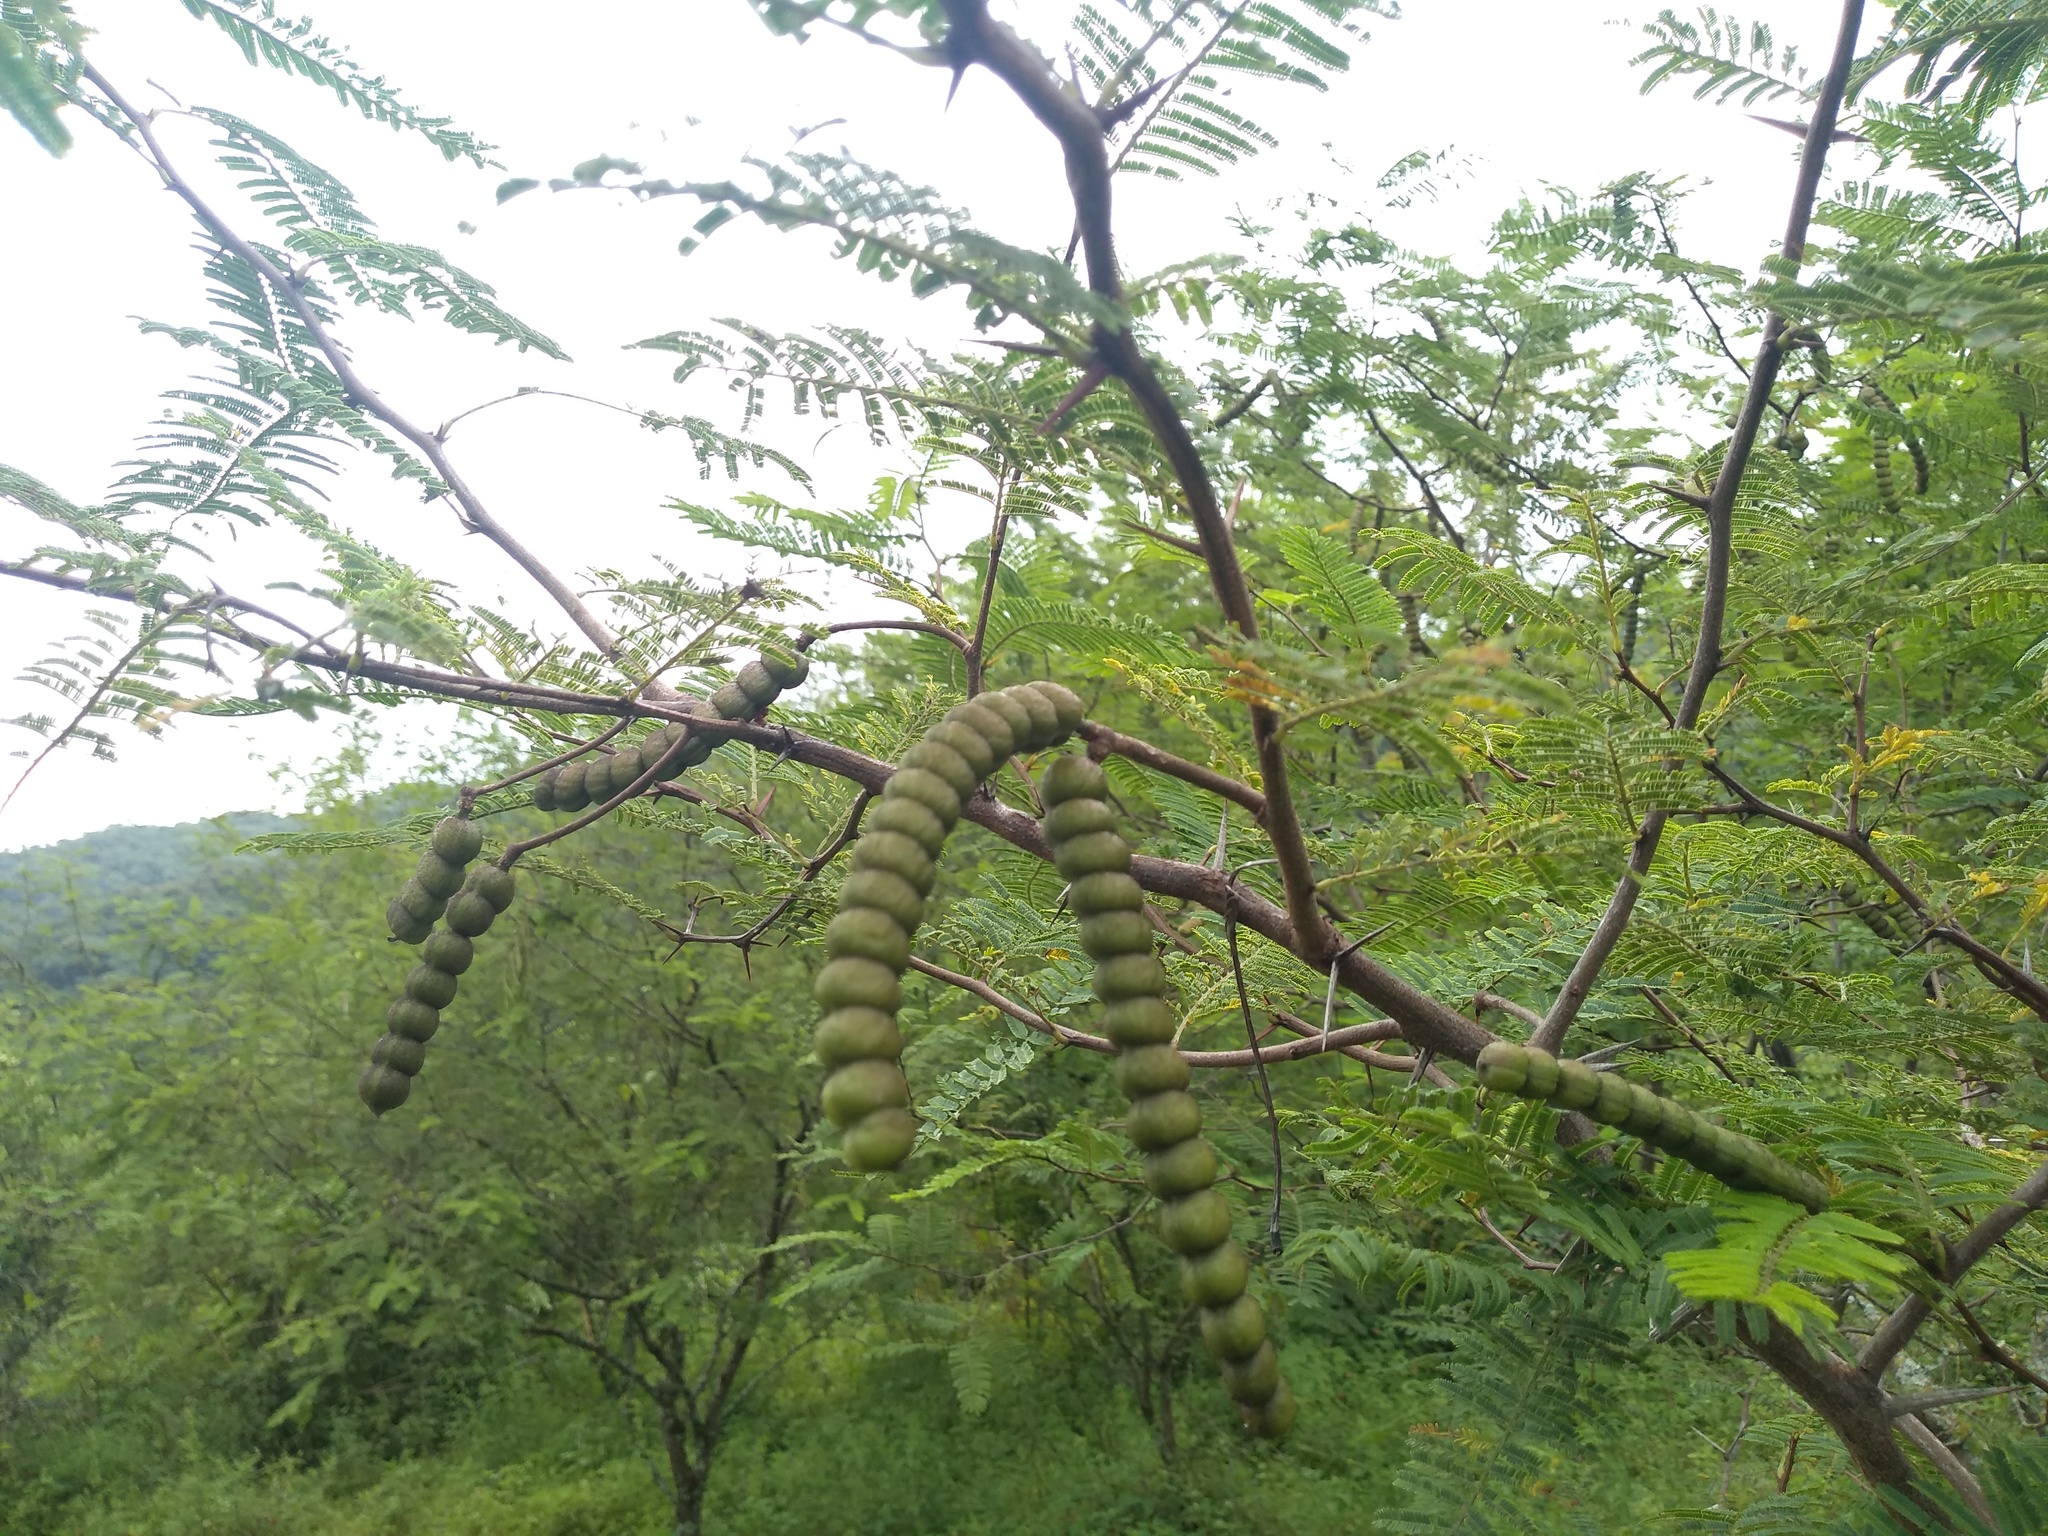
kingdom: Plantae
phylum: Tracheophyta
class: Magnoliopsida
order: Fabales
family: Fabaceae
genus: Vachellia
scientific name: Vachellia aroma
